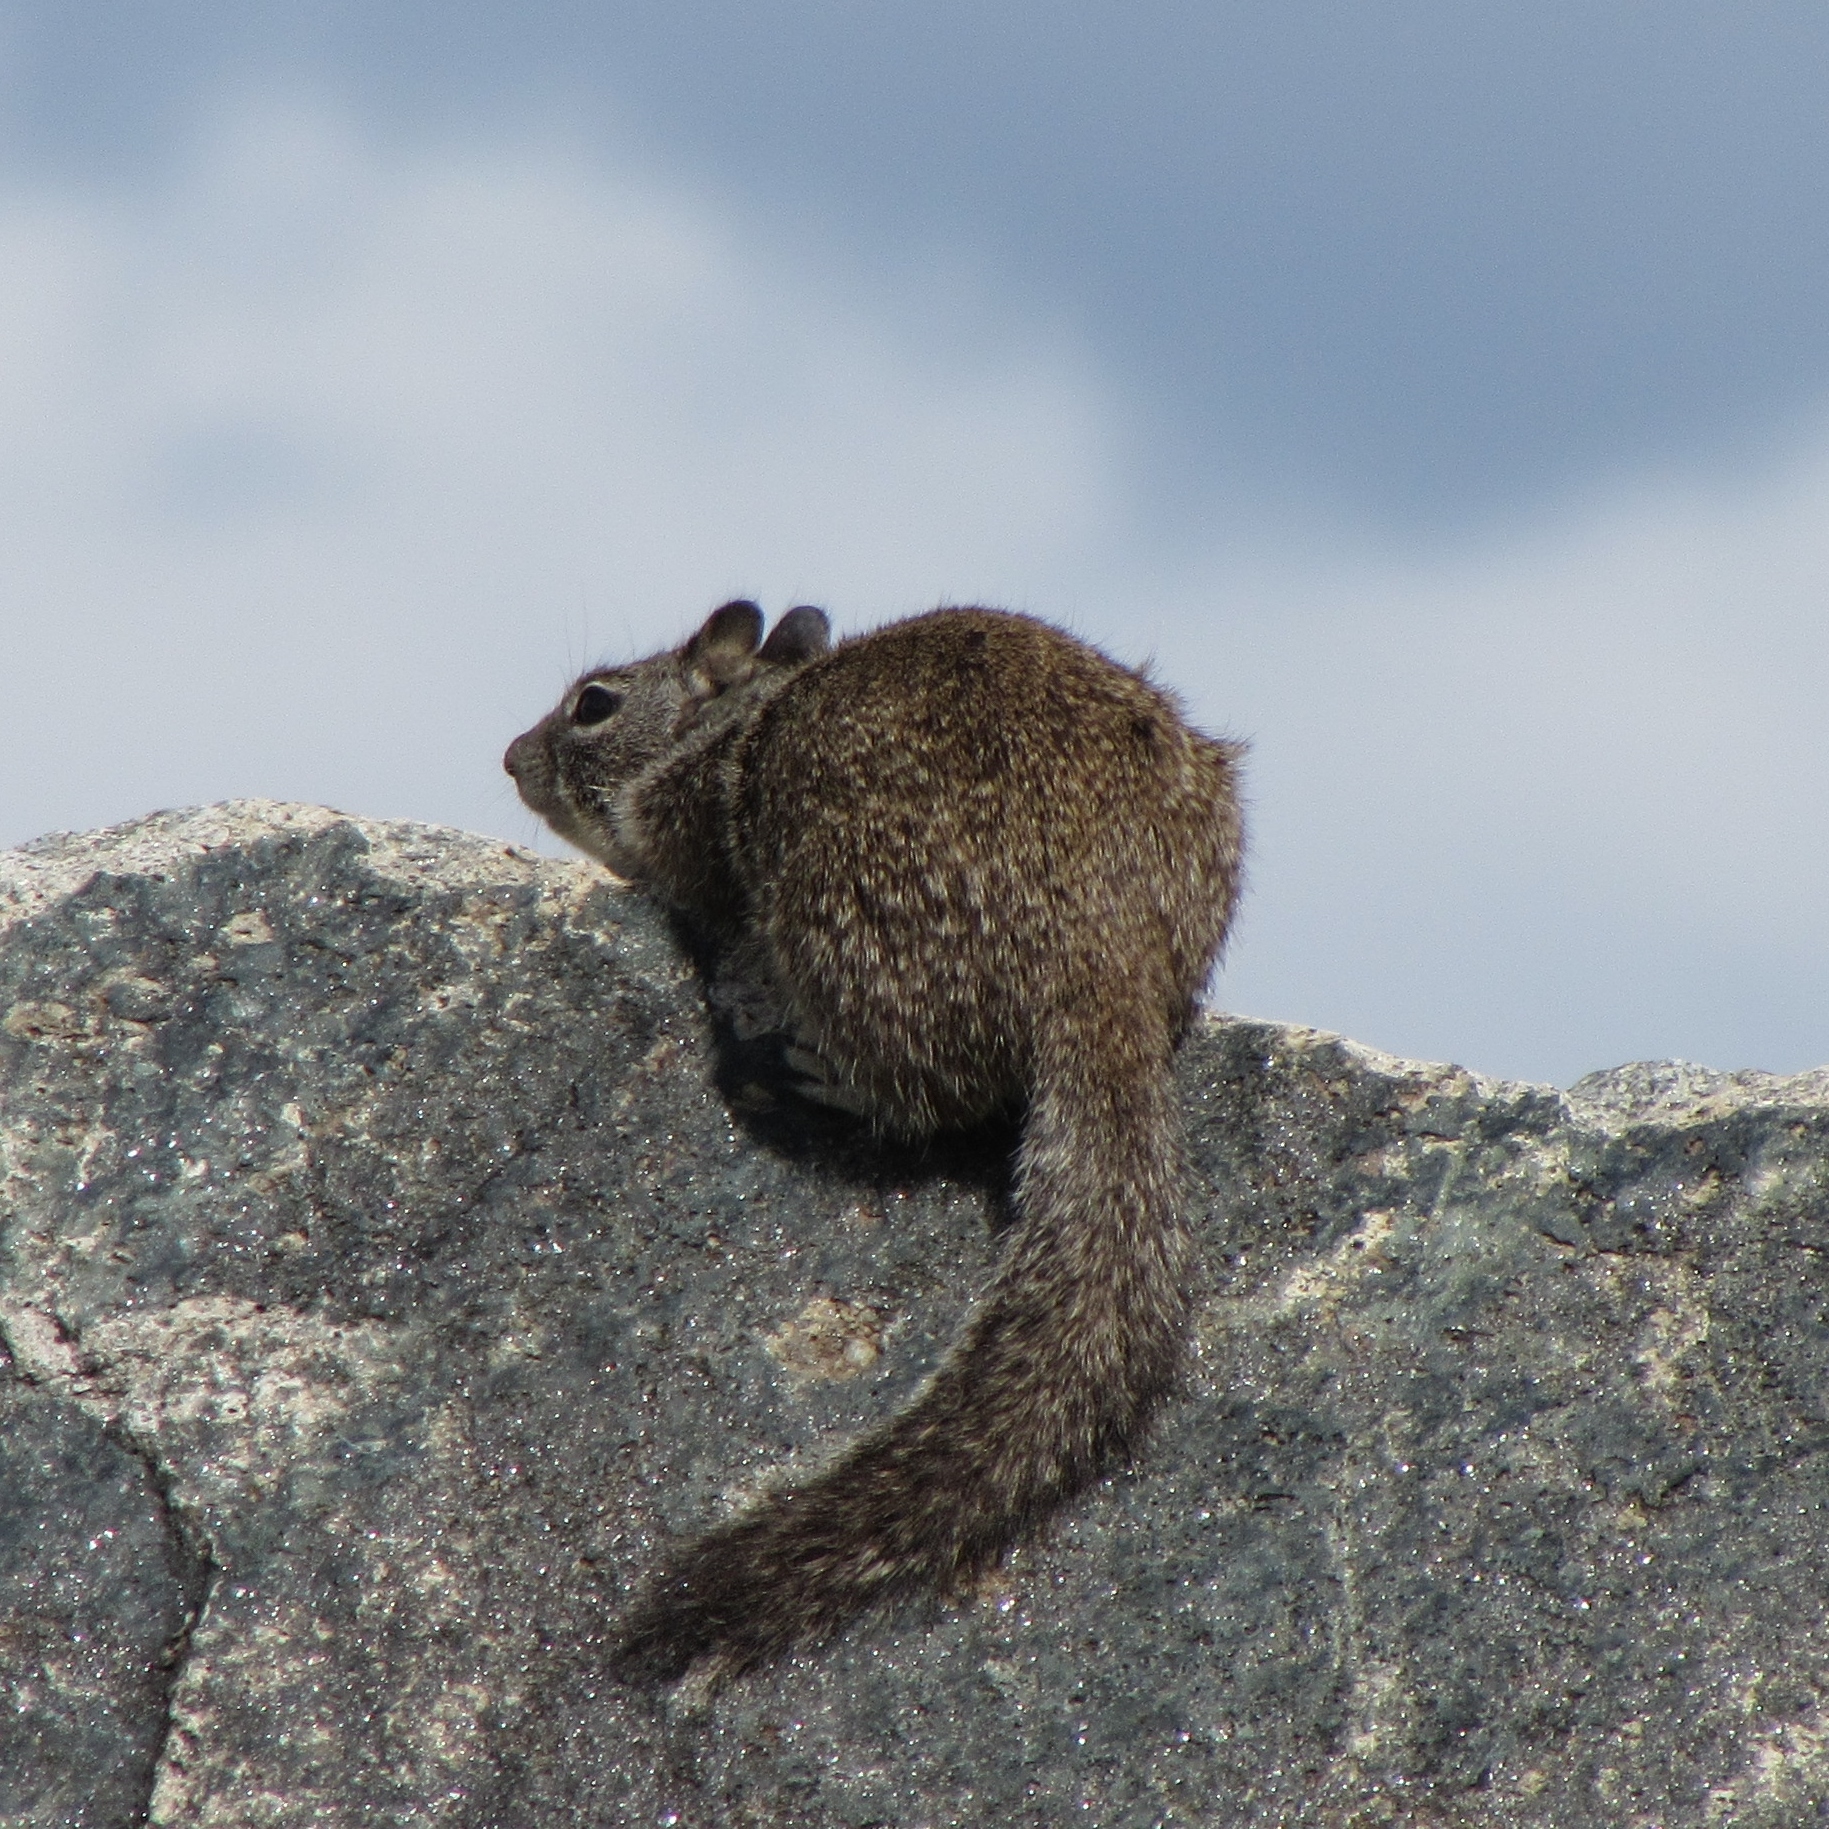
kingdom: Animalia
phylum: Chordata
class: Mammalia
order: Rodentia
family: Sciuridae
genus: Otospermophilus
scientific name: Otospermophilus beecheyi
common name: California ground squirrel
